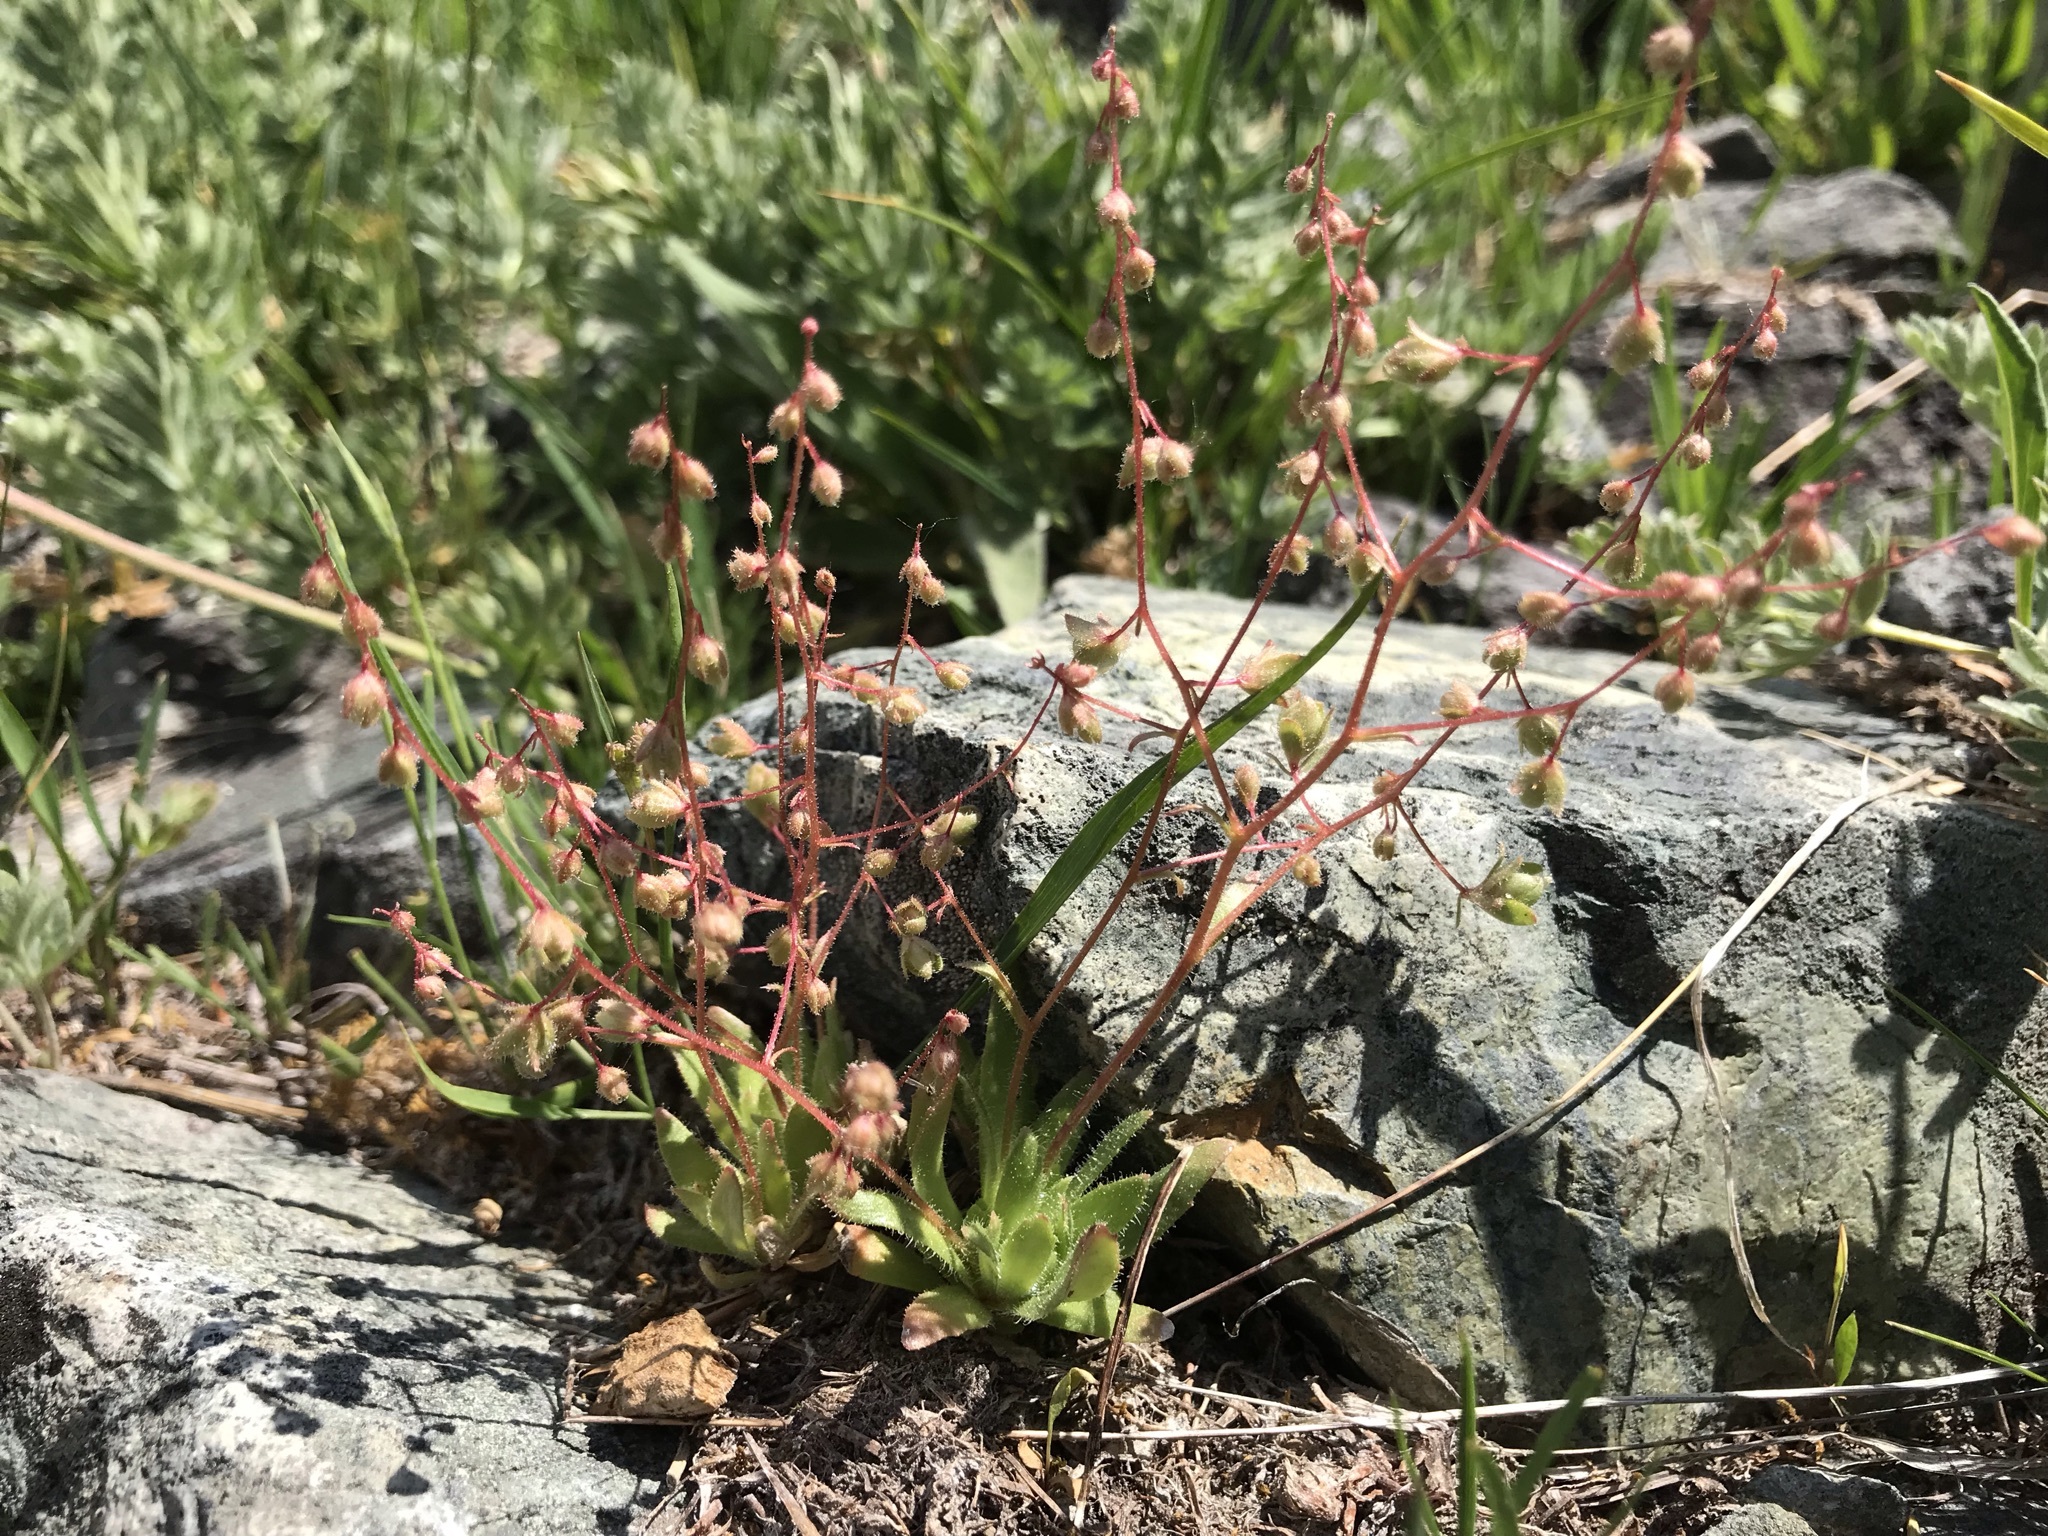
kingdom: Plantae
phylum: Tracheophyta
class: Magnoliopsida
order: Saxifragales
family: Saxifragaceae
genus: Micranthes
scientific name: Micranthes bryophora
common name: Bud saxifrage
